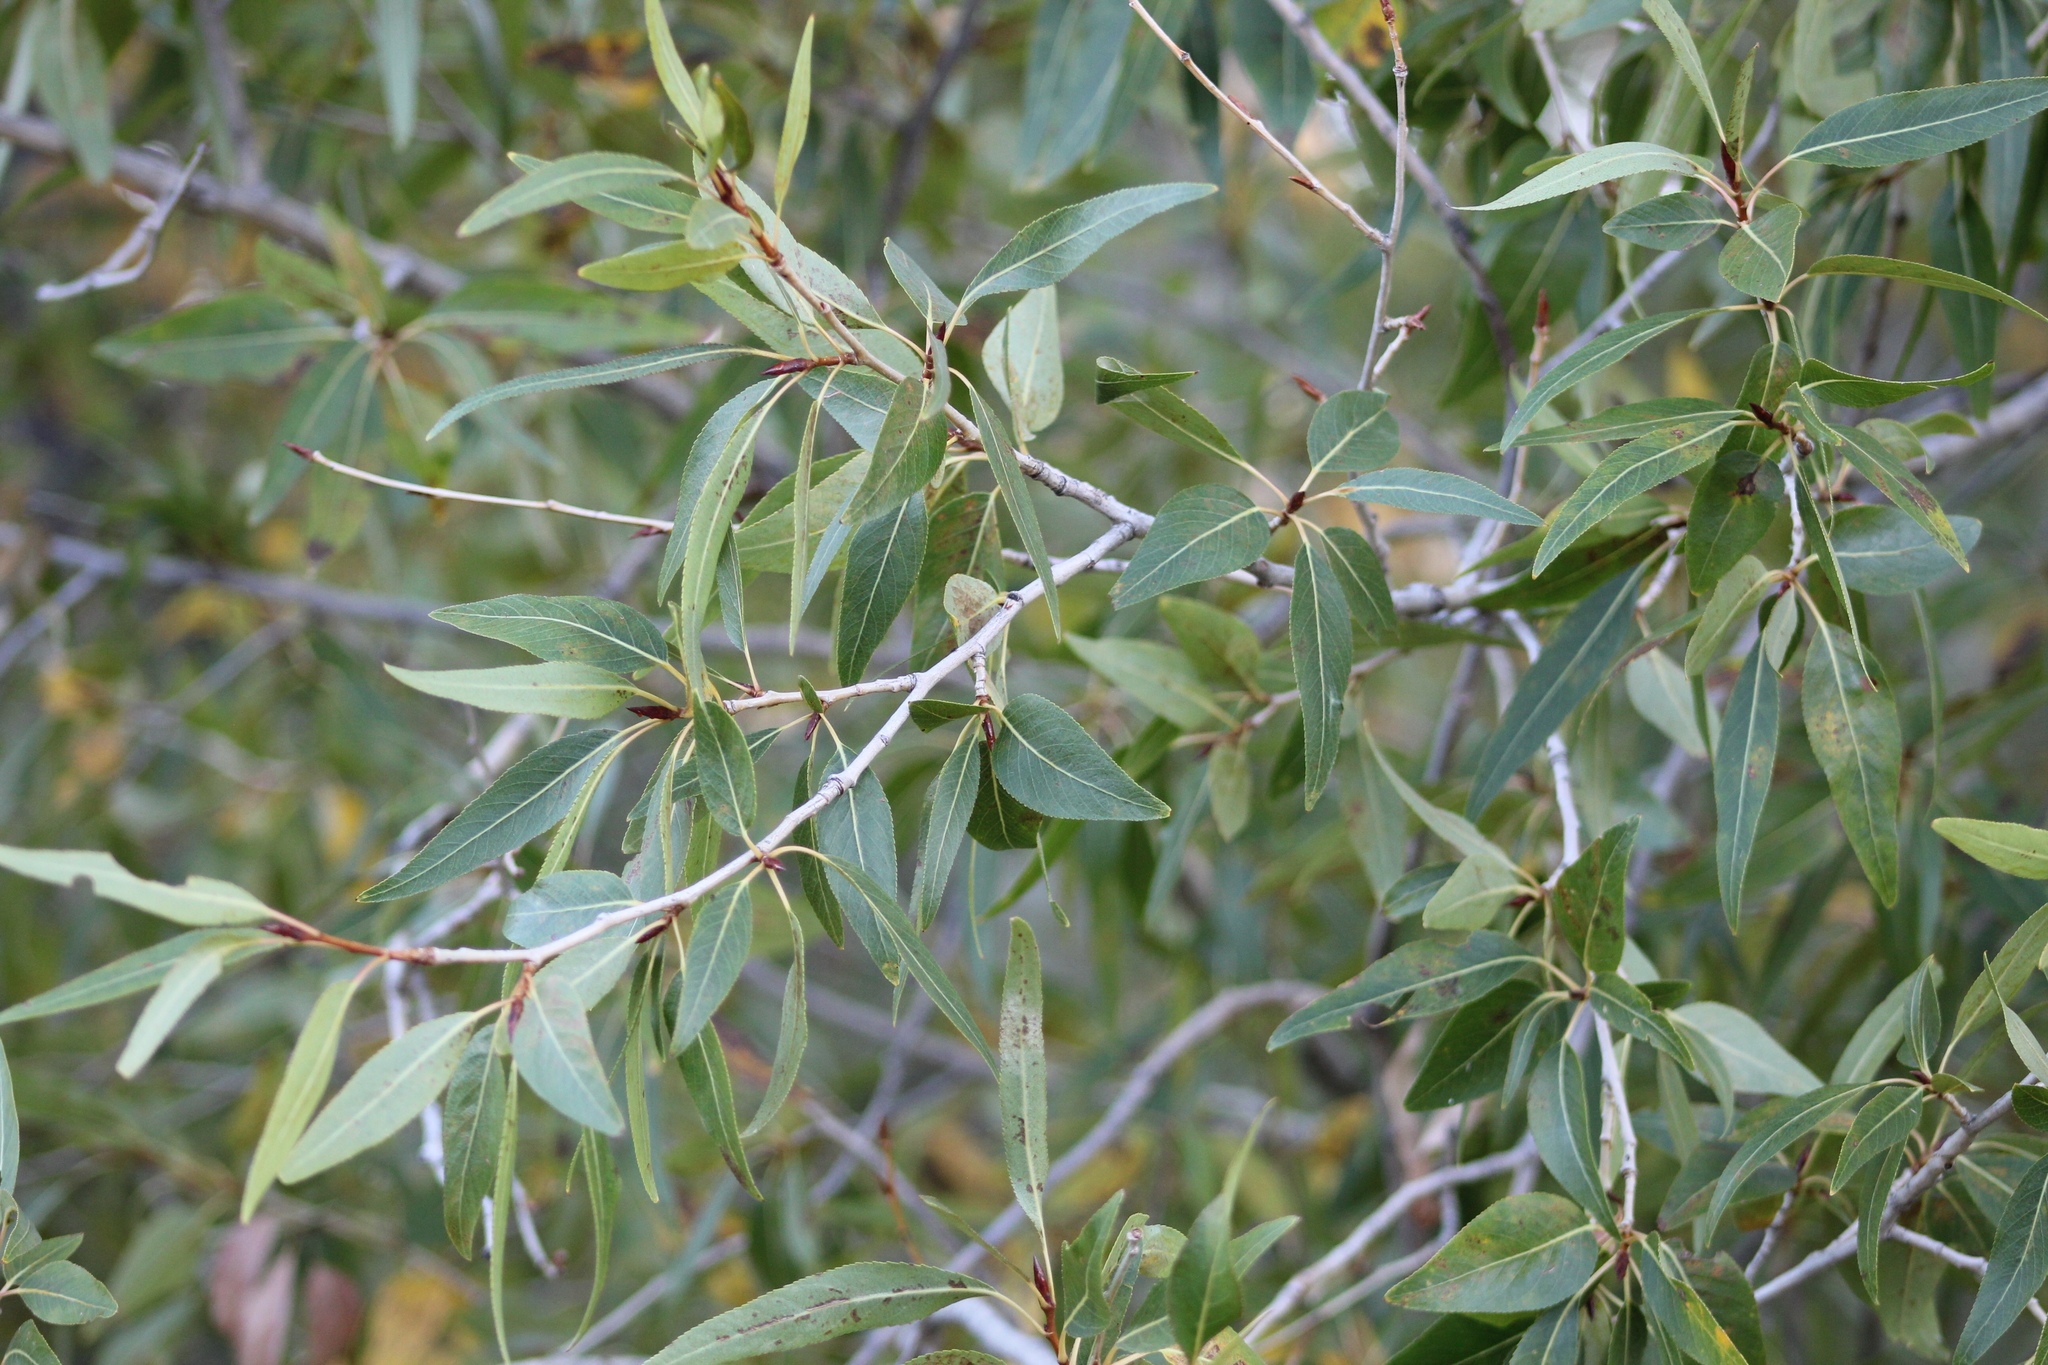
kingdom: Plantae
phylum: Tracheophyta
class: Magnoliopsida
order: Malpighiales
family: Salicaceae
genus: Populus
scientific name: Populus angustifolia
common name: Willow cottonwood
